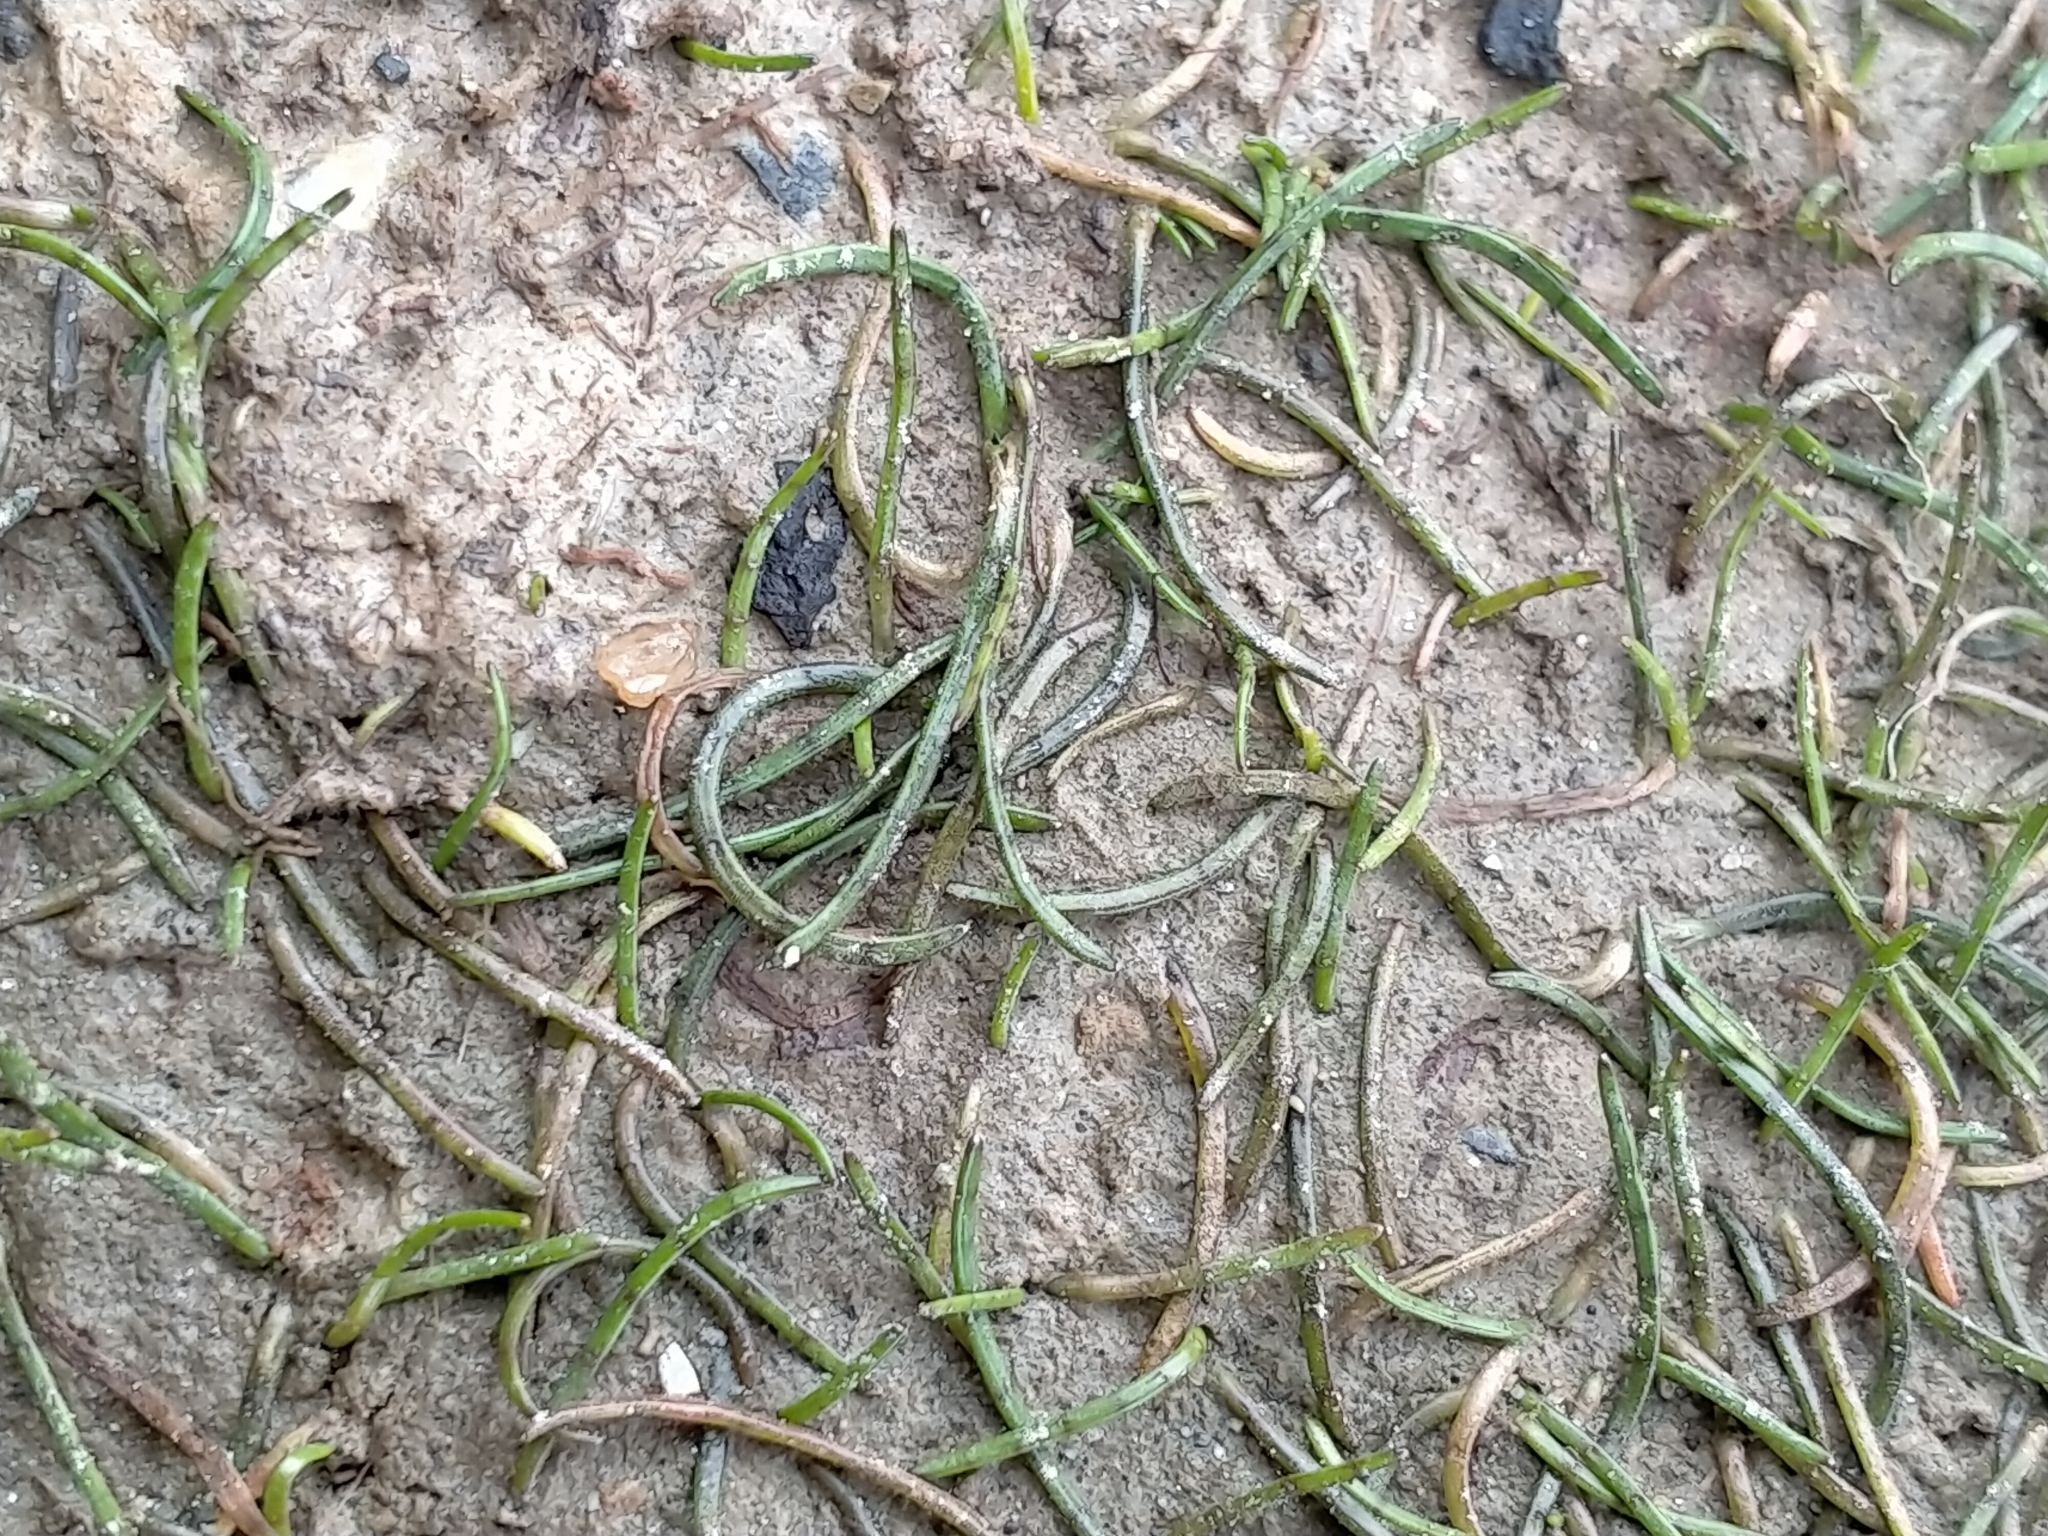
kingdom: Plantae
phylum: Tracheophyta
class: Magnoliopsida
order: Apiales
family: Apiaceae
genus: Lilaeopsis
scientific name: Lilaeopsis novae-zelandiae
